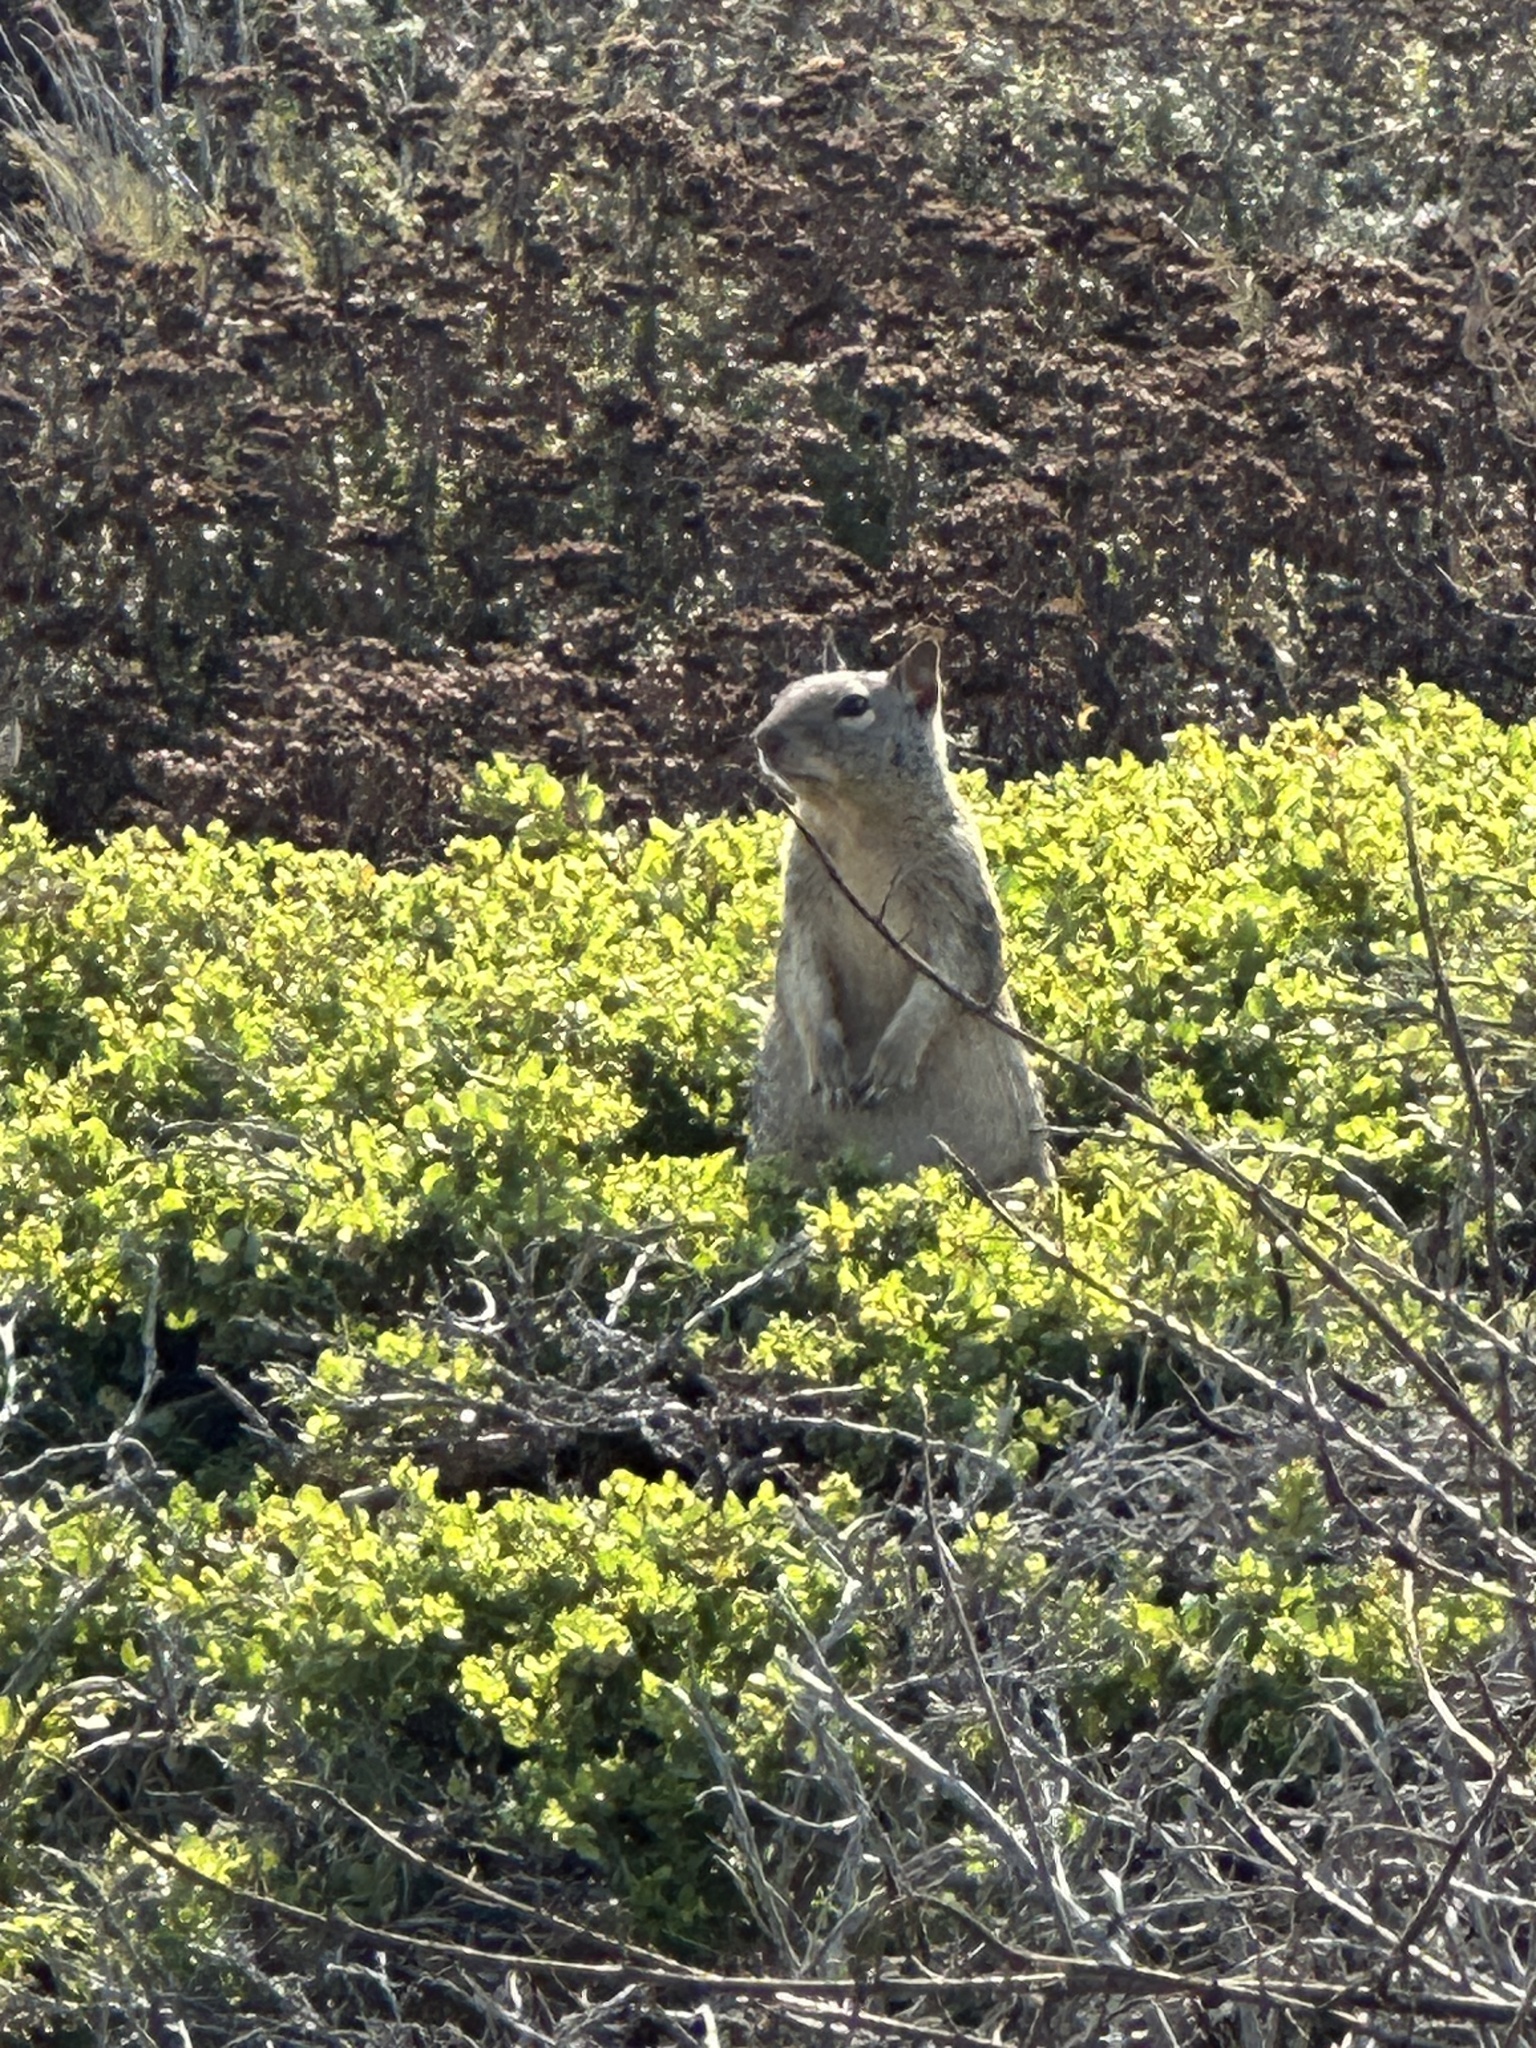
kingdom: Animalia
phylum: Chordata
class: Mammalia
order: Rodentia
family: Sciuridae
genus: Otospermophilus
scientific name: Otospermophilus beecheyi
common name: California ground squirrel
